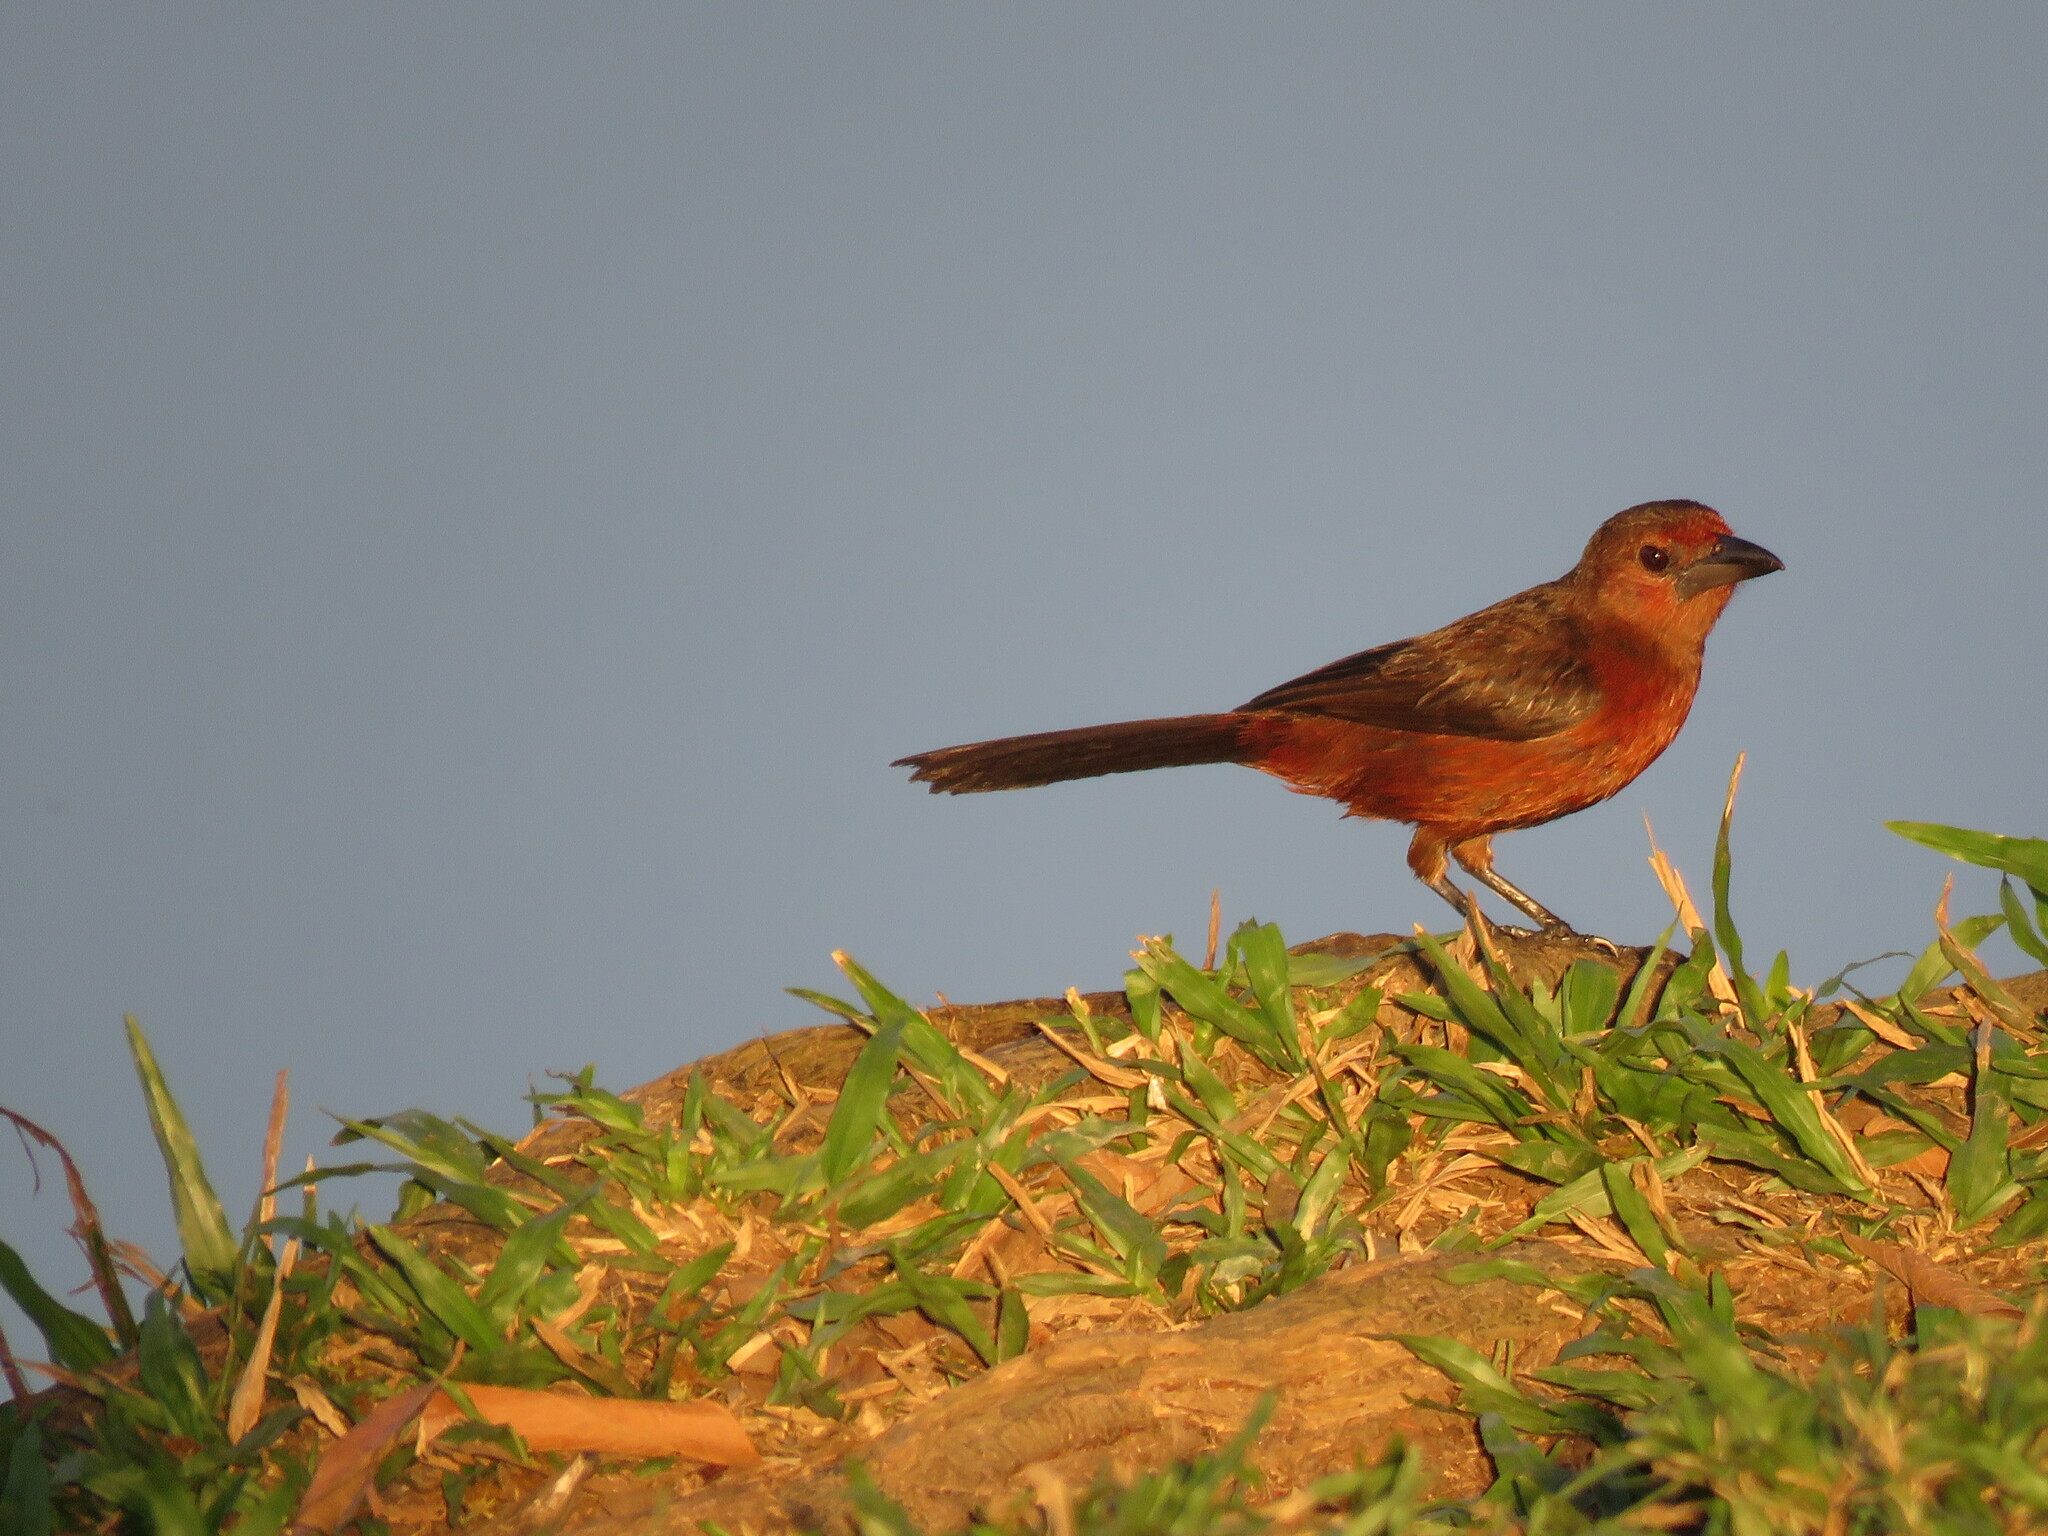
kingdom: Animalia
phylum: Chordata
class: Aves
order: Passeriformes
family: Thraupidae
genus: Ramphocelus
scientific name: Ramphocelus carbo
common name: Silver-beaked tanager
